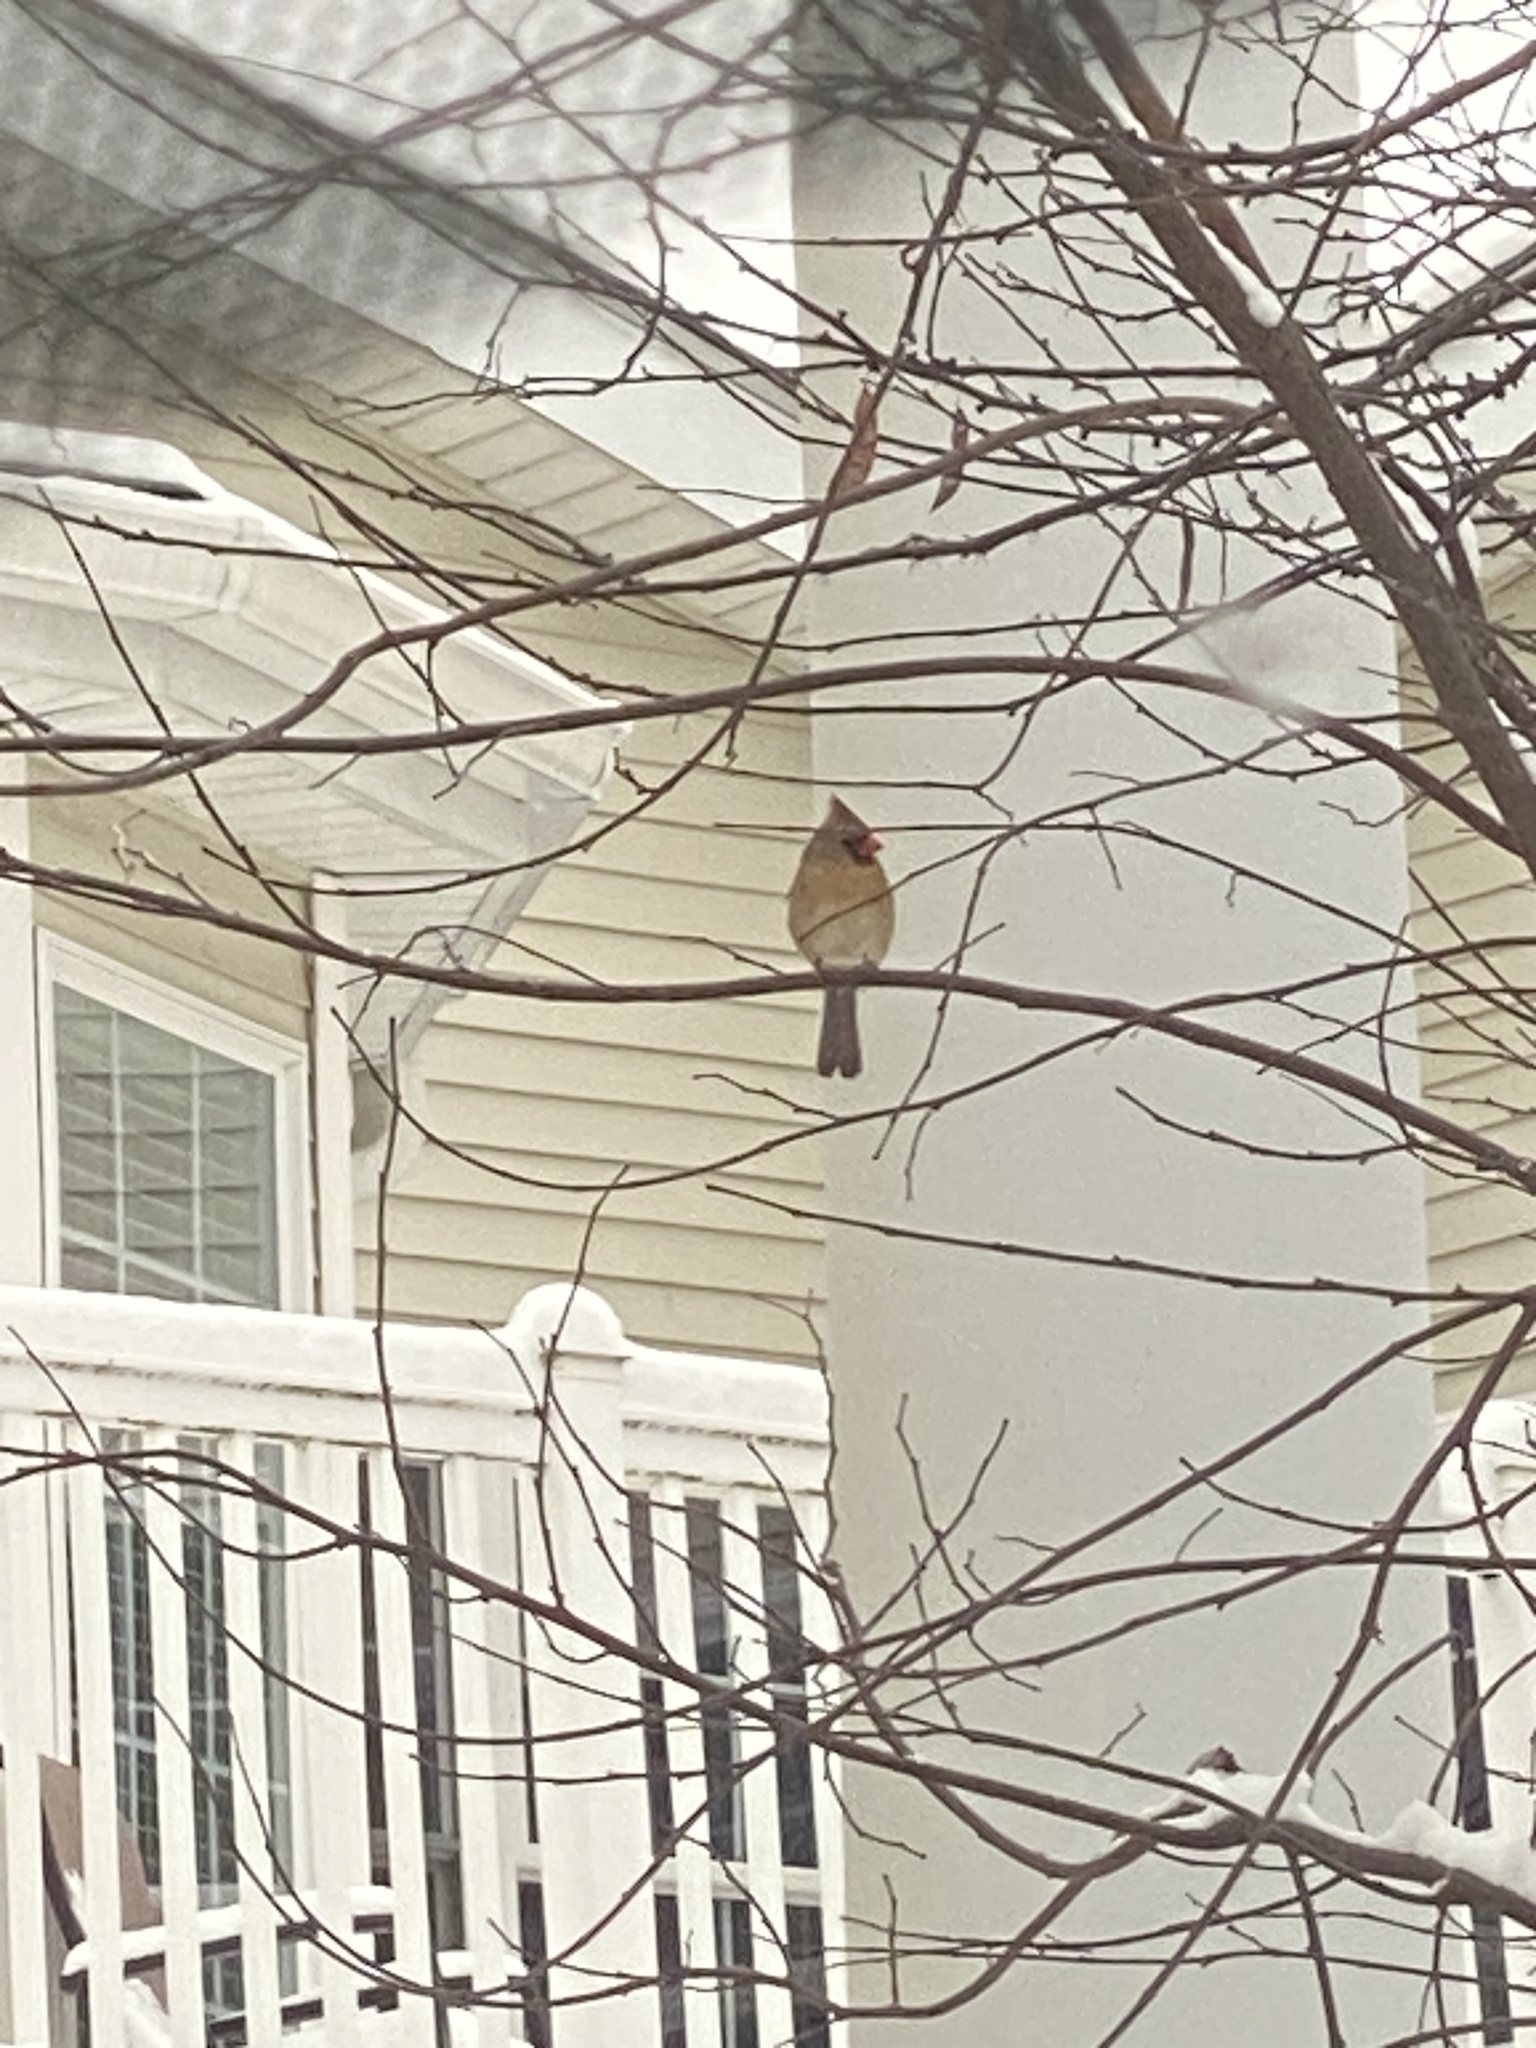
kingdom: Animalia
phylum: Chordata
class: Aves
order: Passeriformes
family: Cardinalidae
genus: Cardinalis
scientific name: Cardinalis cardinalis
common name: Northern cardinal
